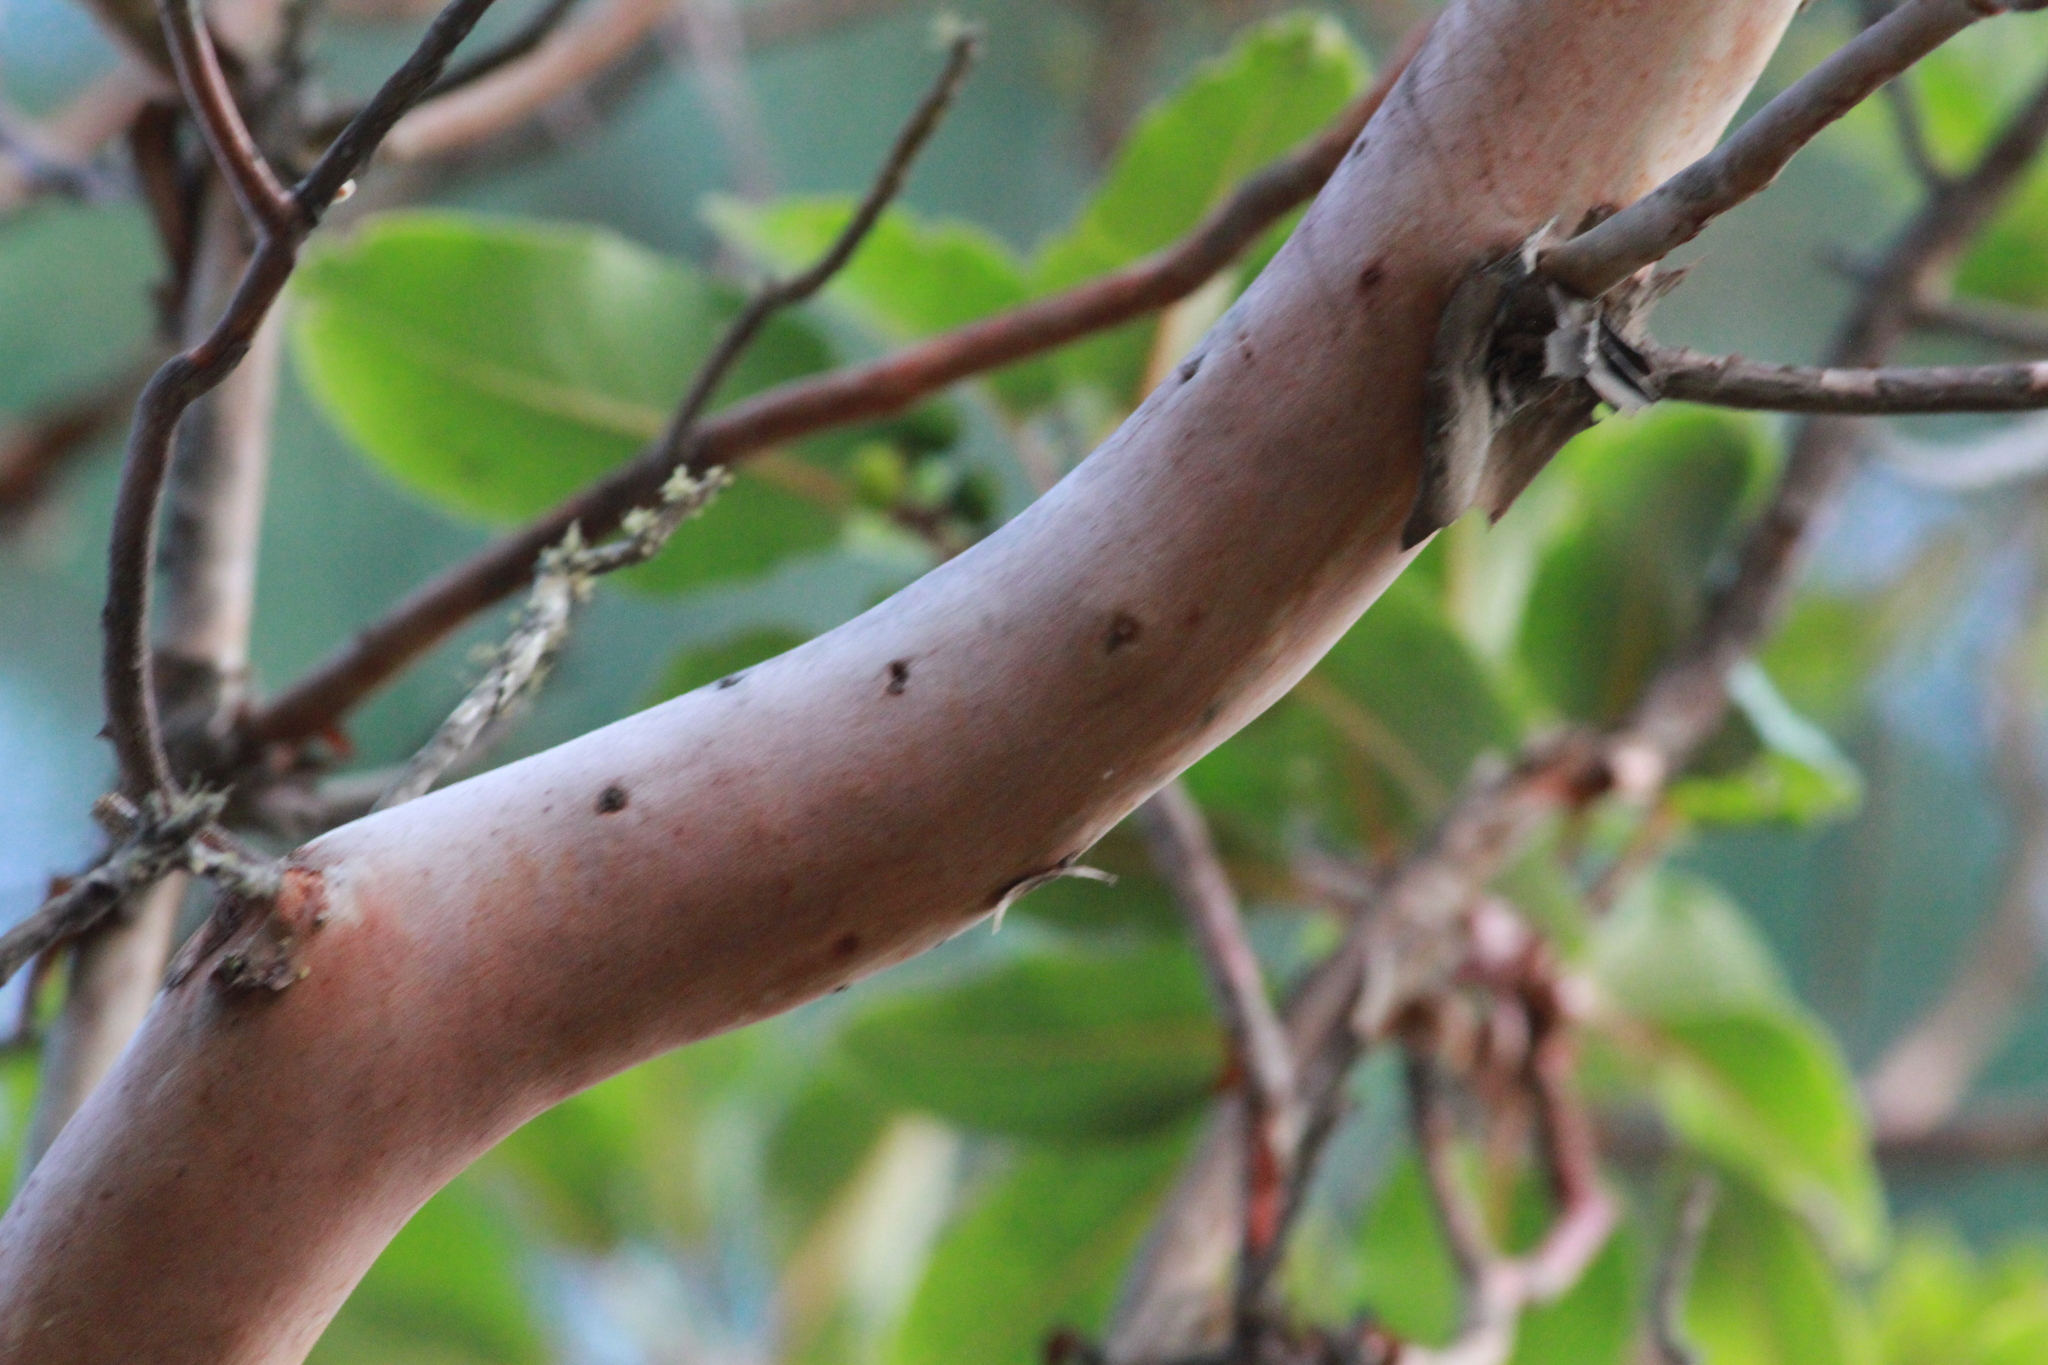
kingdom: Plantae
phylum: Tracheophyta
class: Magnoliopsida
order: Ericales
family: Ericaceae
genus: Arbutus
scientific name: Arbutus xalapensis
